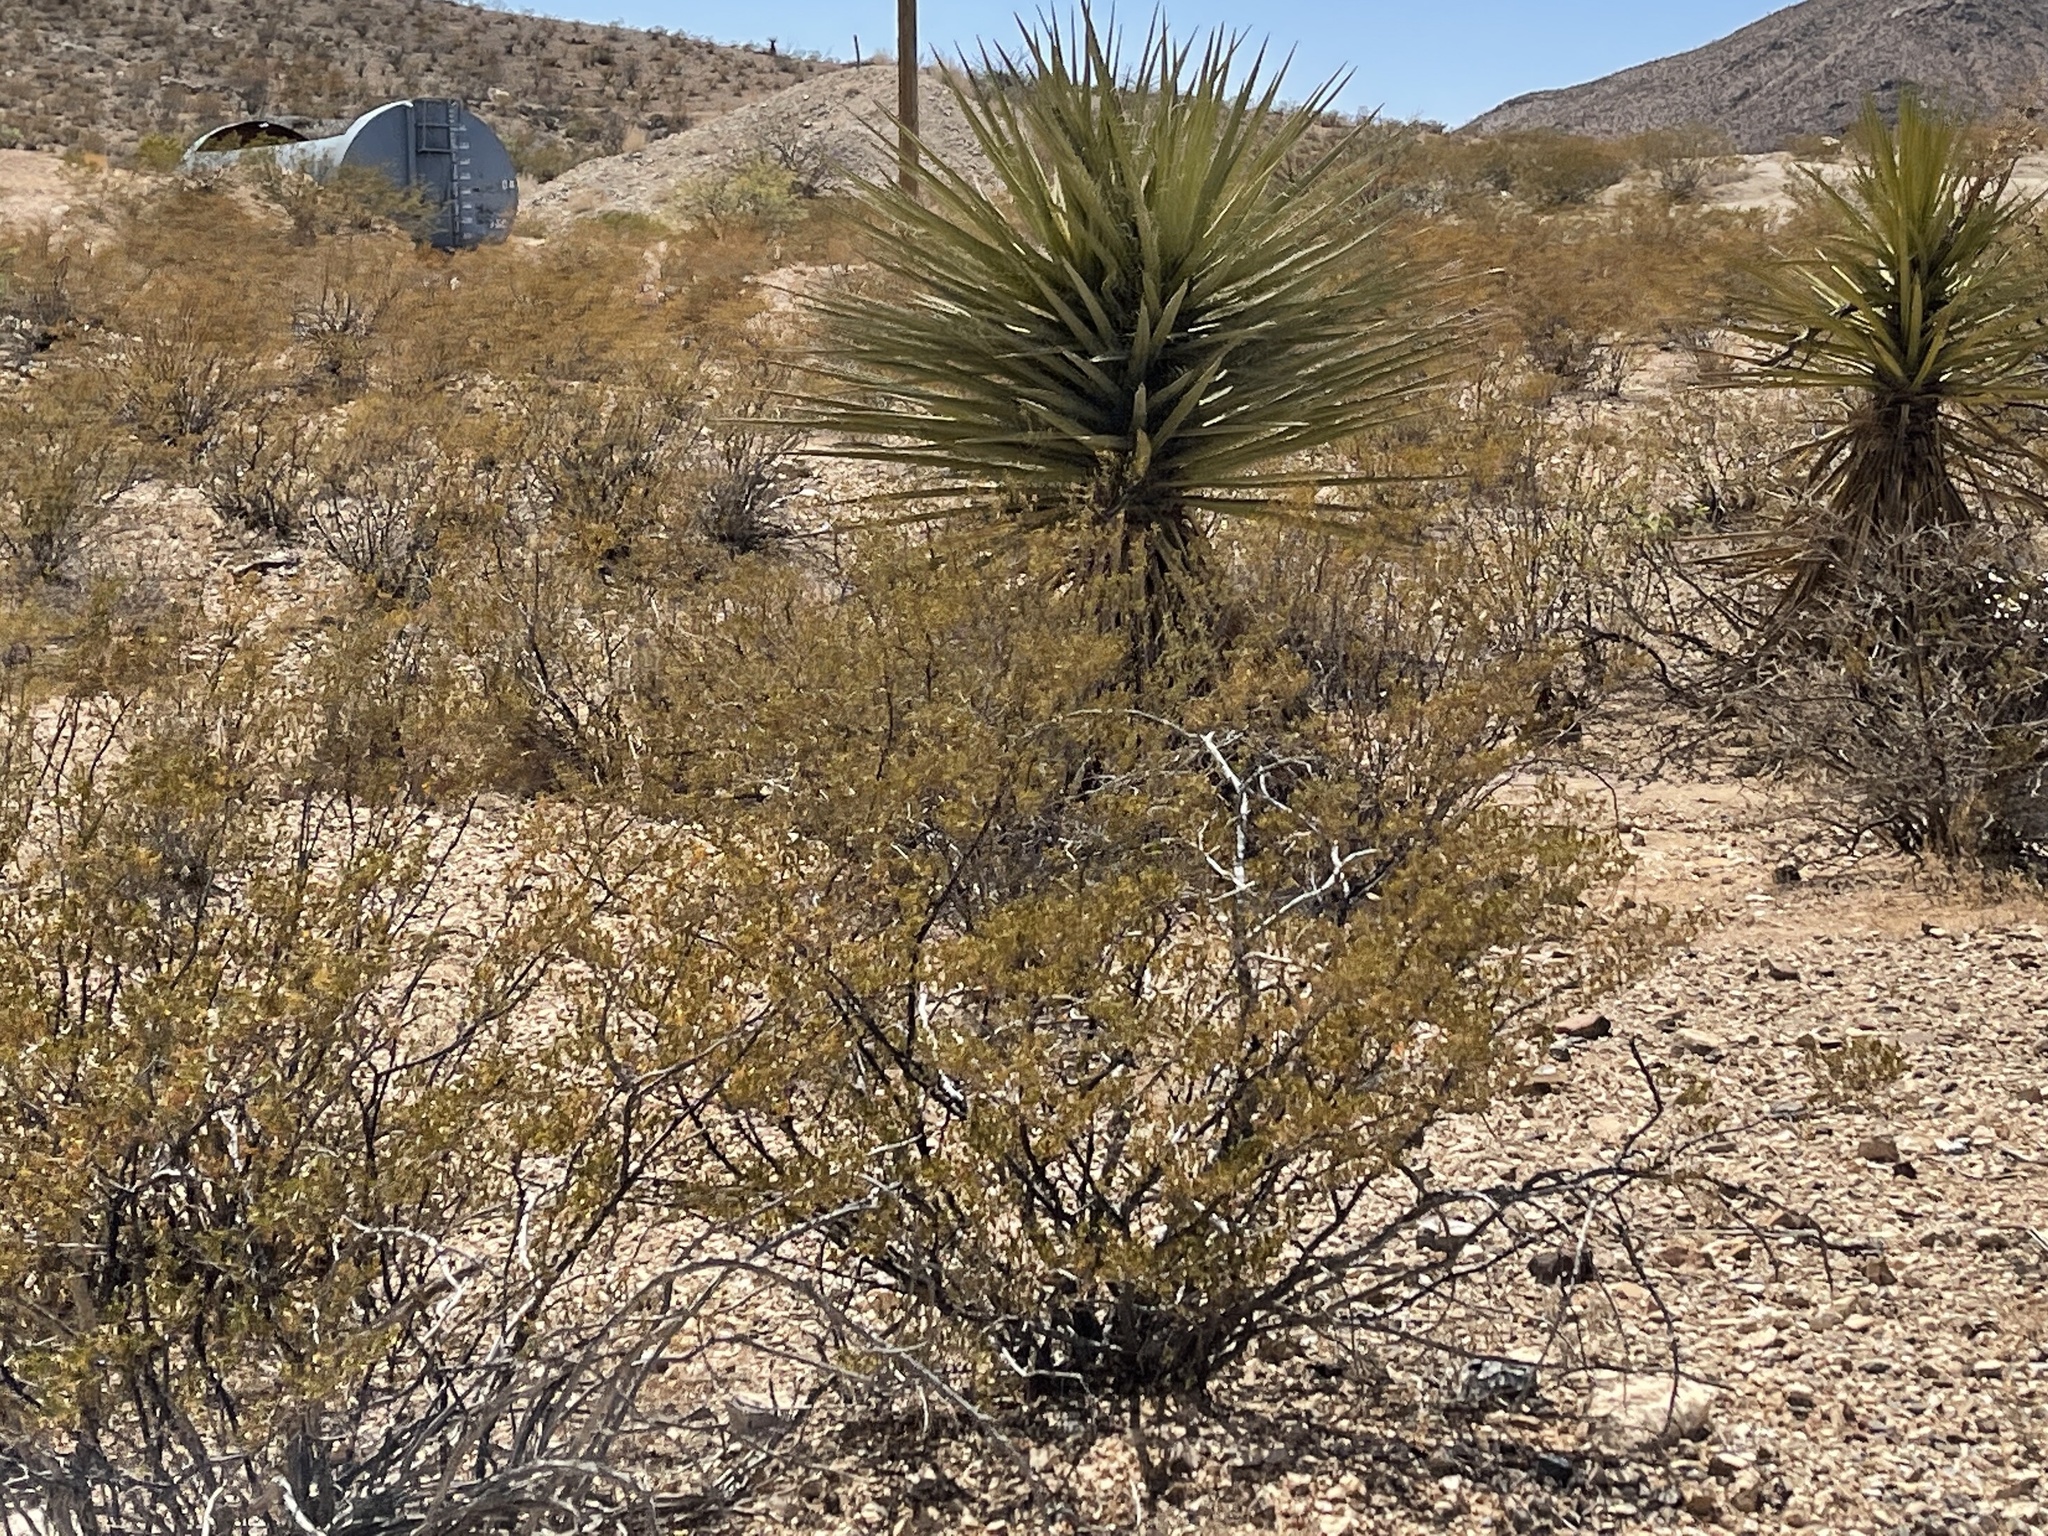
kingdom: Plantae
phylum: Tracheophyta
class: Magnoliopsida
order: Zygophyllales
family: Zygophyllaceae
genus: Larrea
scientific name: Larrea tridentata
